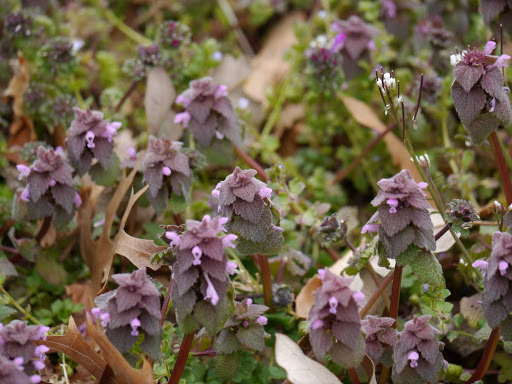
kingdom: Plantae
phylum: Tracheophyta
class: Magnoliopsida
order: Lamiales
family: Lamiaceae
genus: Lamium
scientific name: Lamium purpureum
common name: Red dead-nettle
